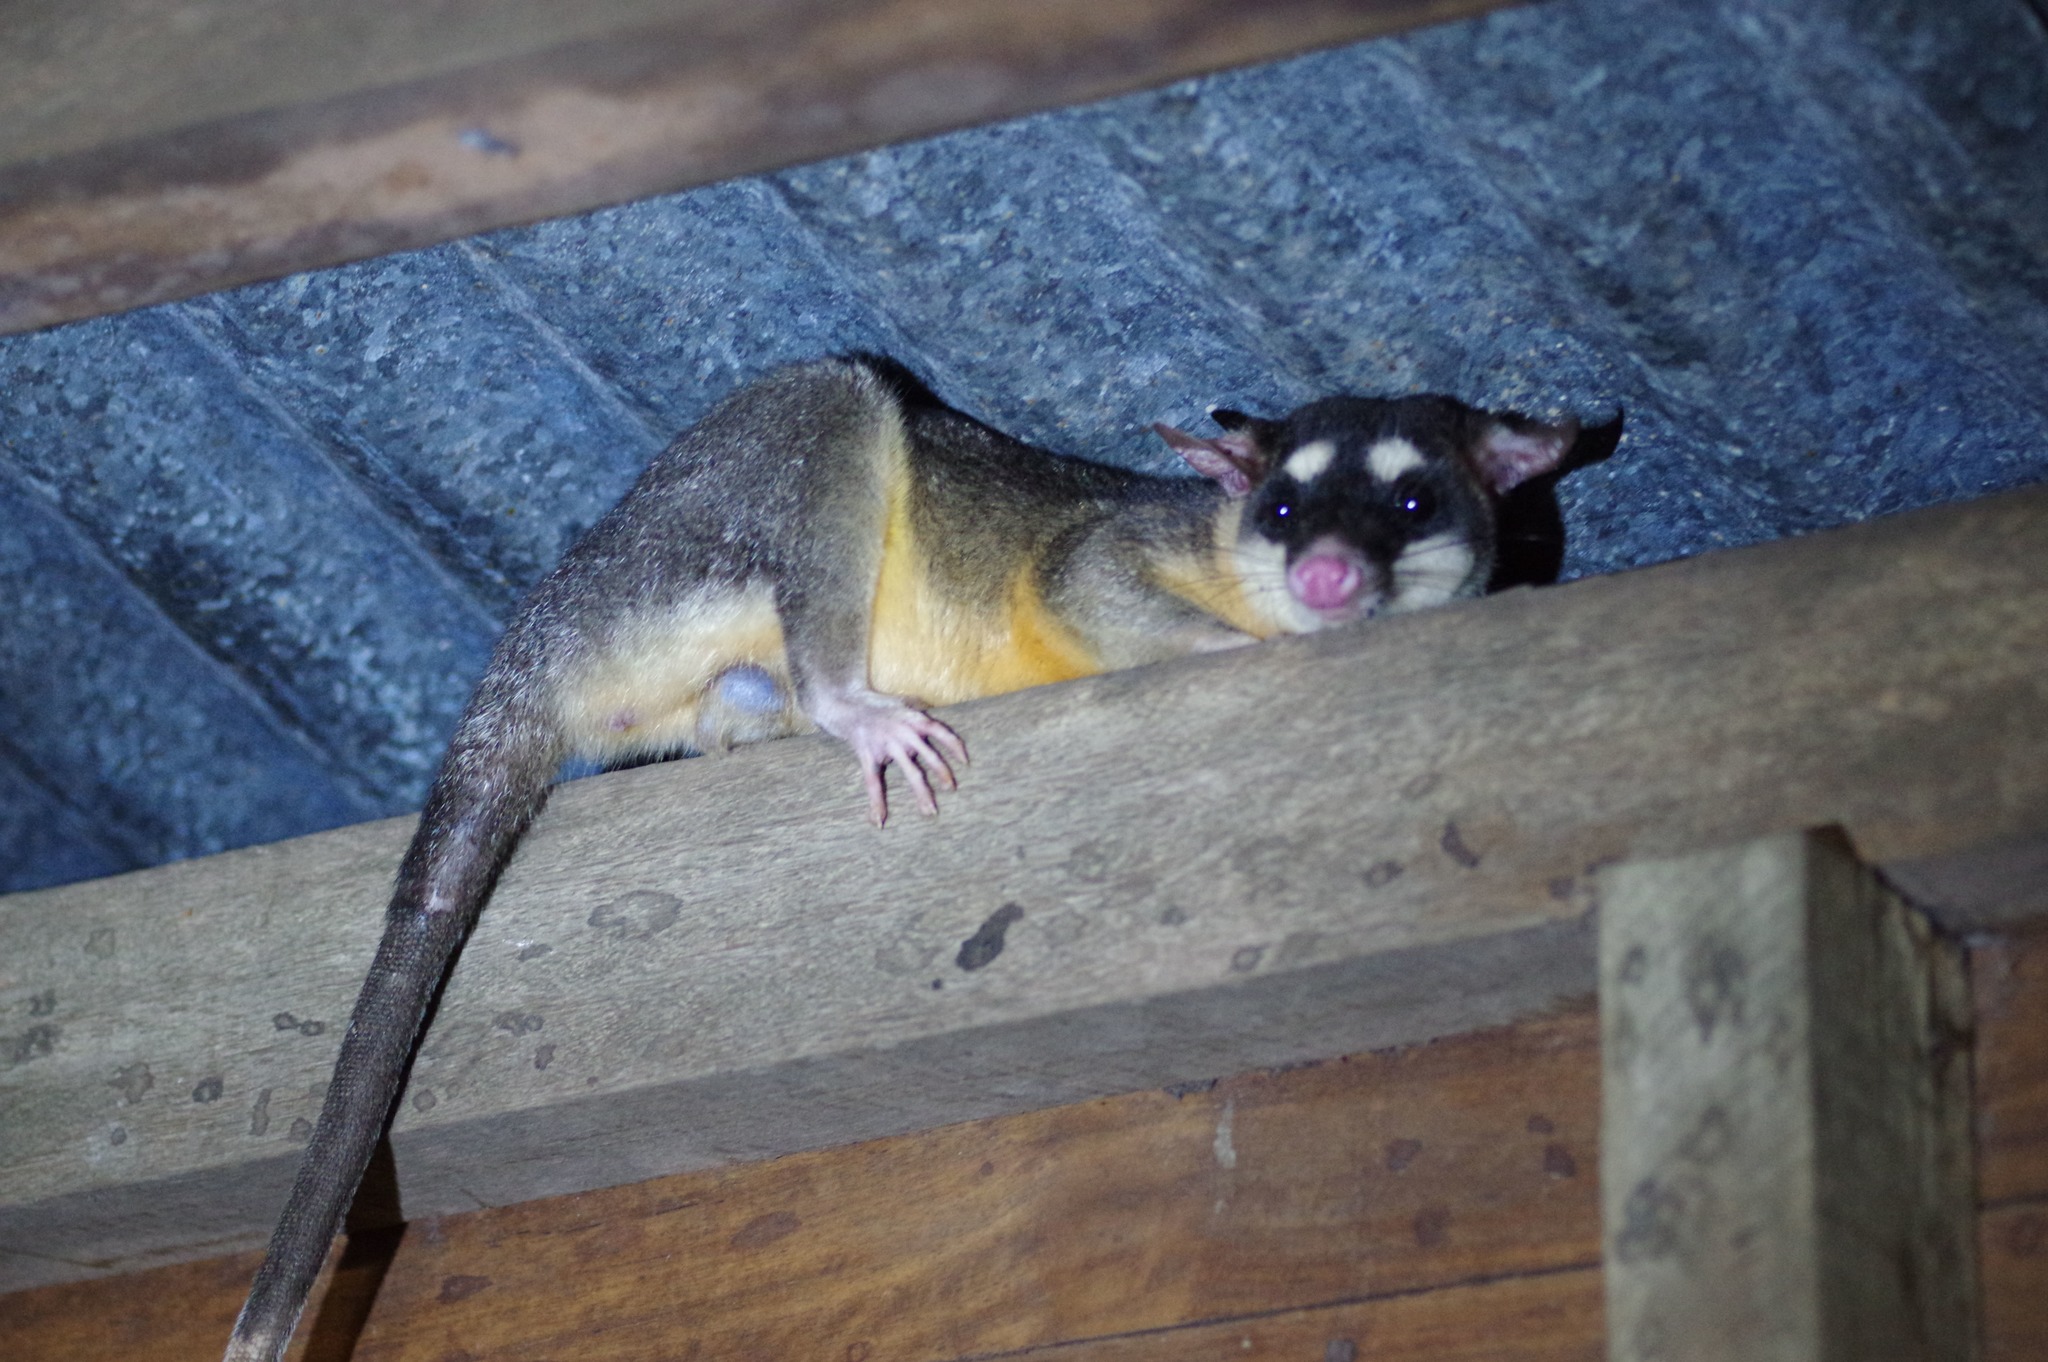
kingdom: Animalia
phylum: Chordata
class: Mammalia
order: Didelphimorphia
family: Didelphidae
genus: Philander
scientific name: Philander opossum
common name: Gray four-eyed opossum
